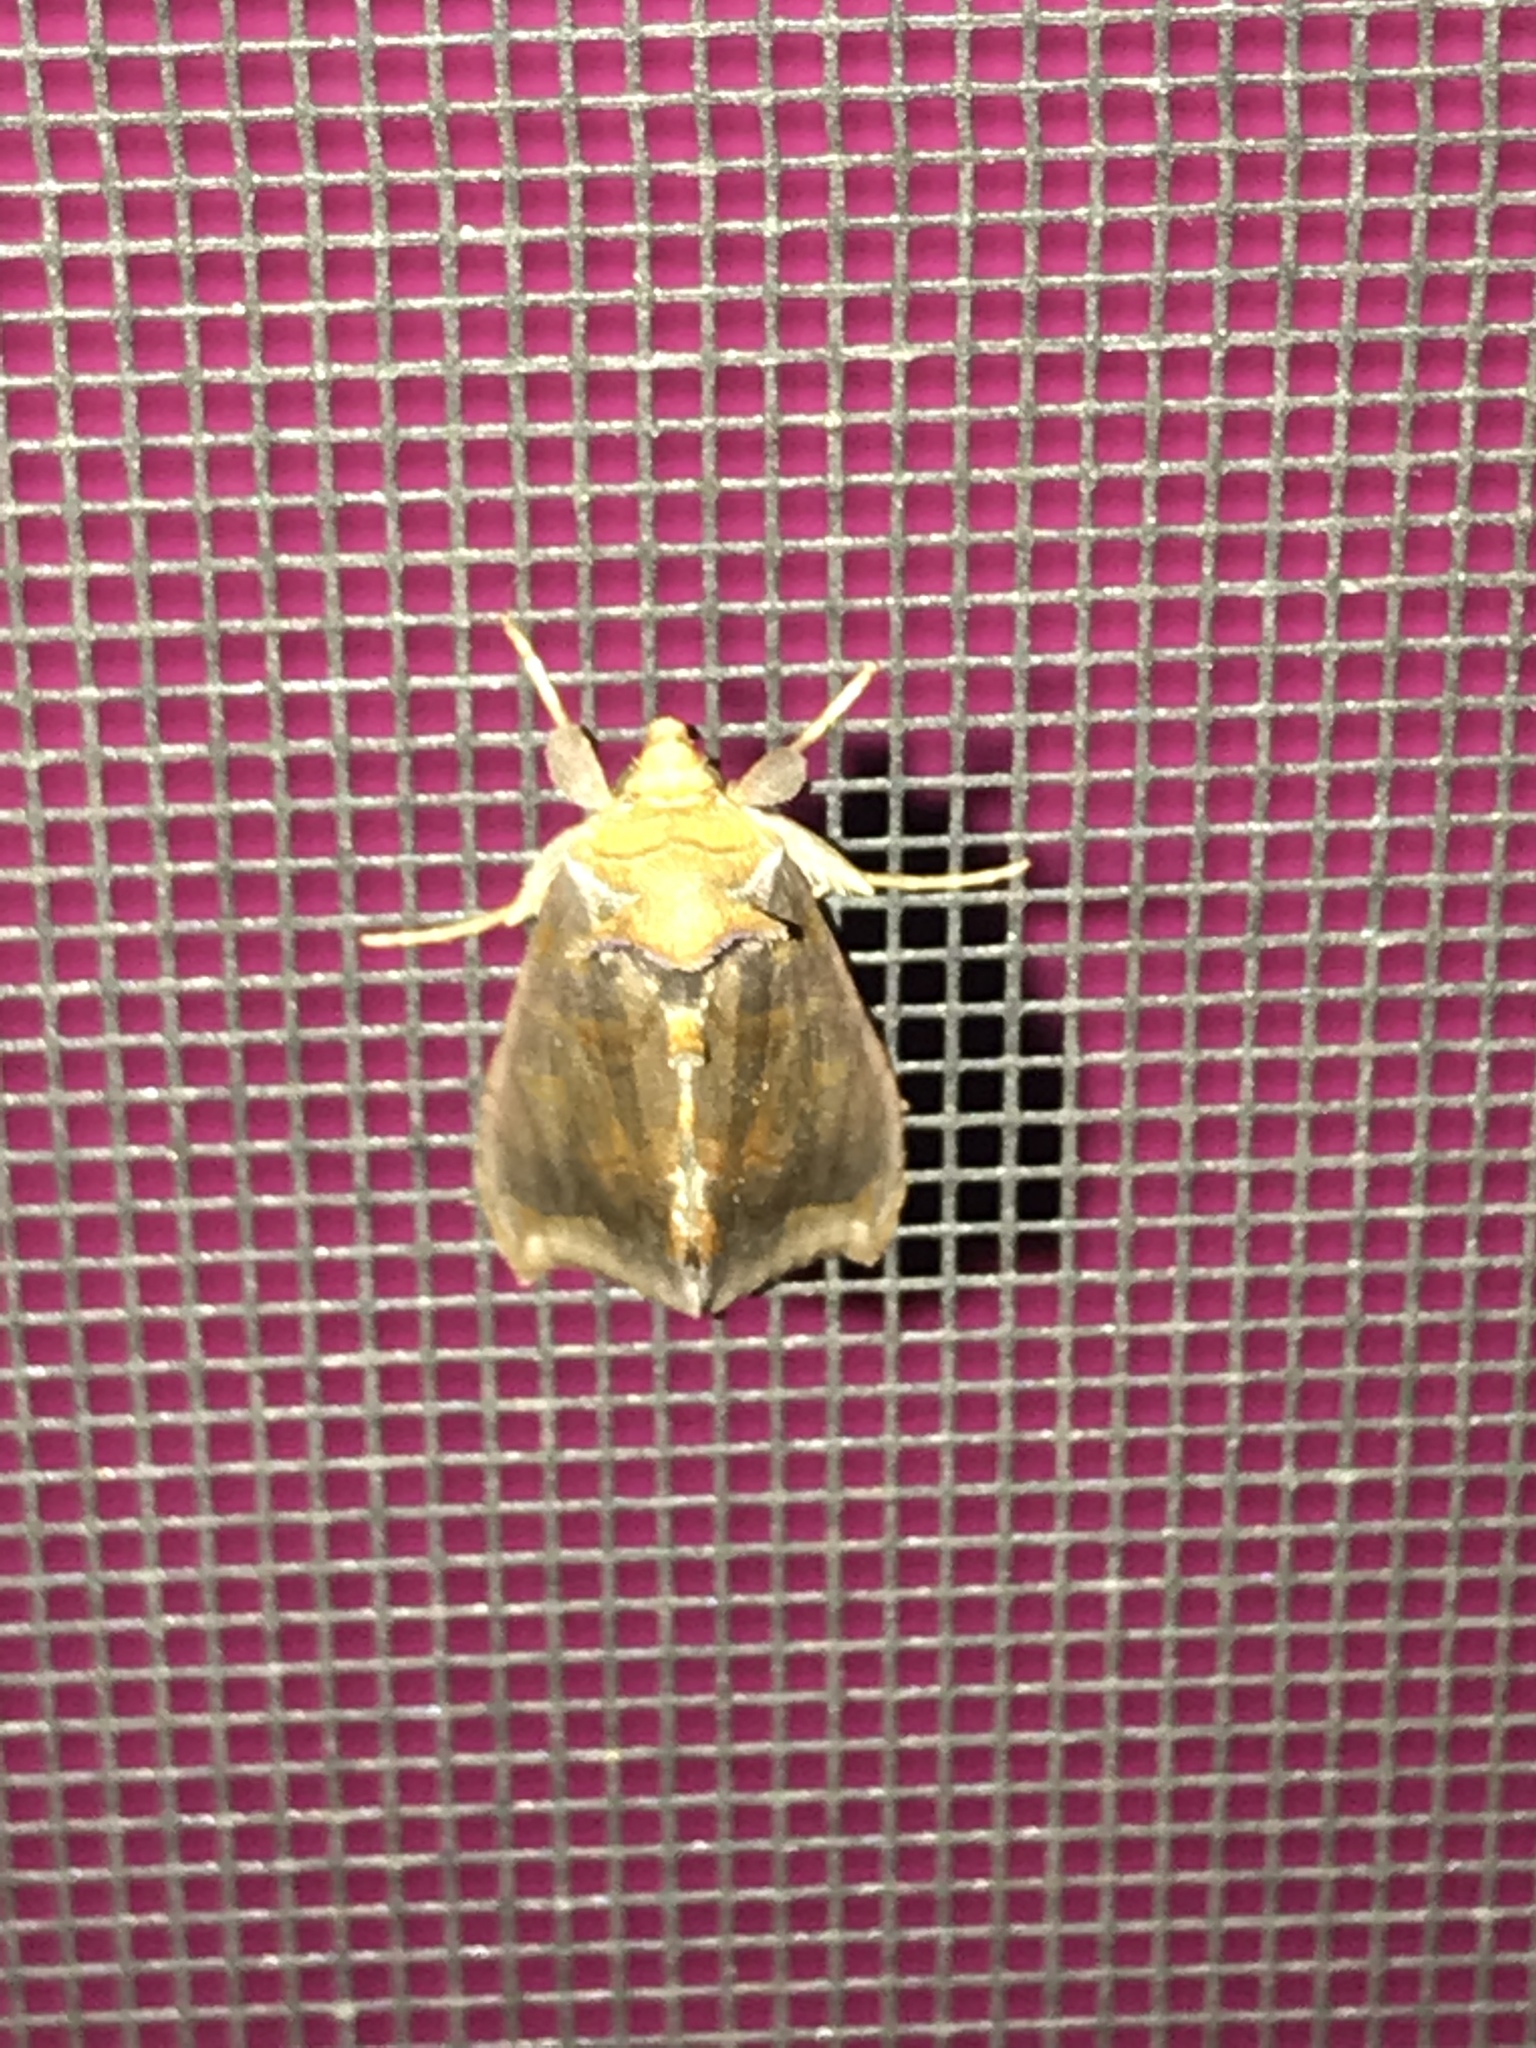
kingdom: Animalia
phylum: Arthropoda
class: Insecta
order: Lepidoptera
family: Noctuidae
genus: Allagrapha
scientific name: Allagrapha aerea
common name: Unspotted looper moth
